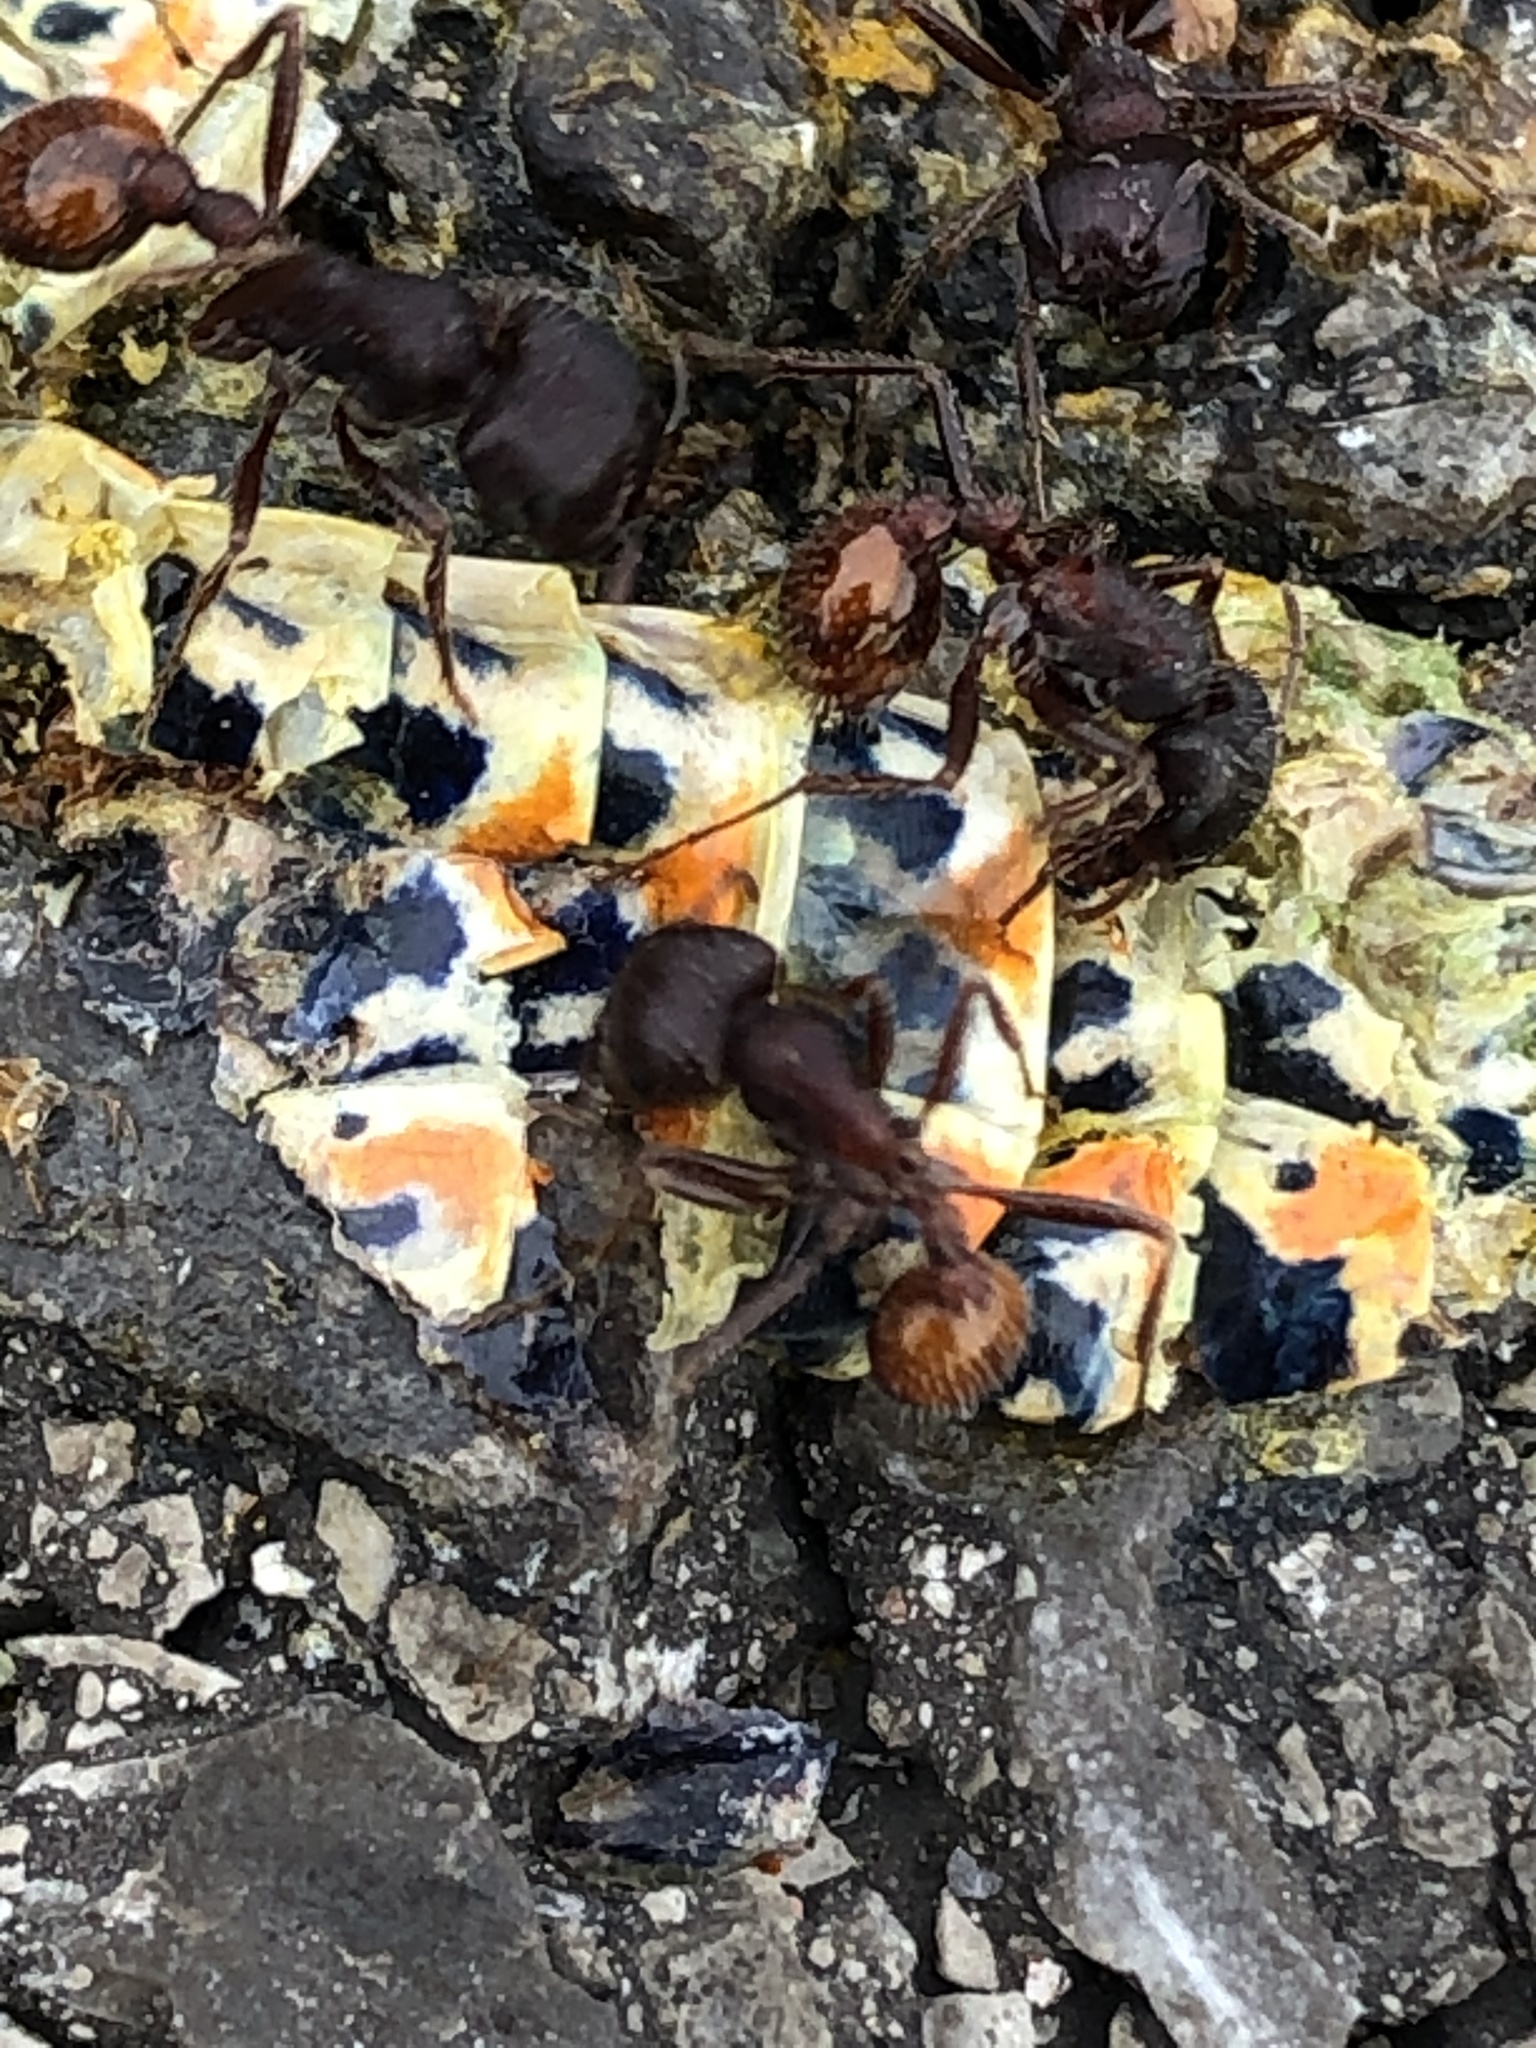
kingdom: Animalia
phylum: Arthropoda
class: Insecta
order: Hymenoptera
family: Formicidae
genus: Pogonomyrmex
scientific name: Pogonomyrmex rugosus
